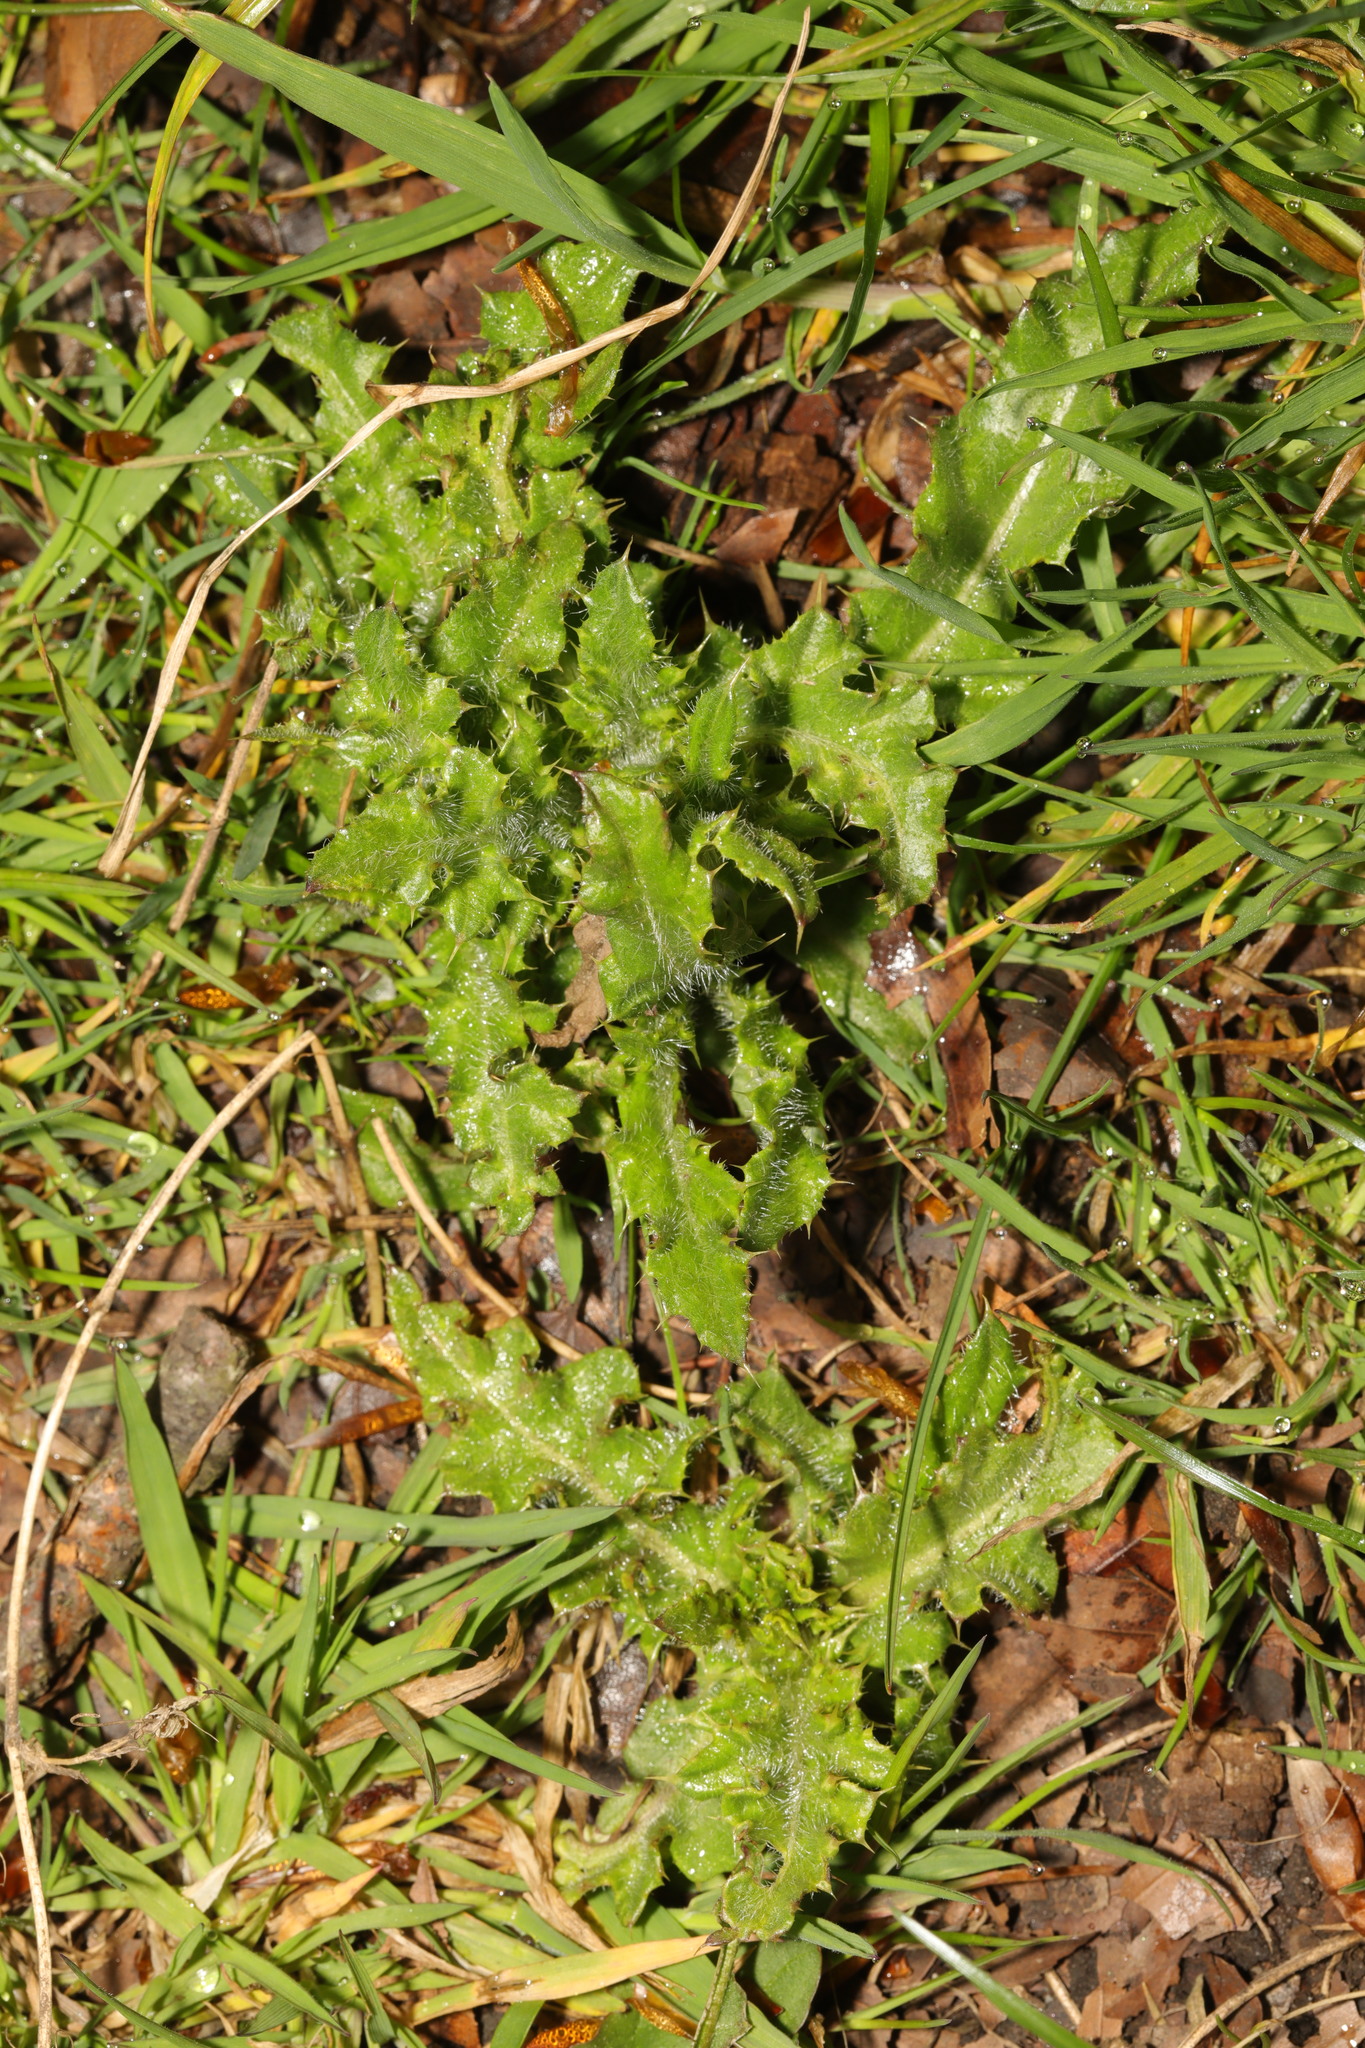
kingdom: Plantae
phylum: Tracheophyta
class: Magnoliopsida
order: Asterales
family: Asteraceae
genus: Cirsium
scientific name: Cirsium arvense
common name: Creeping thistle
